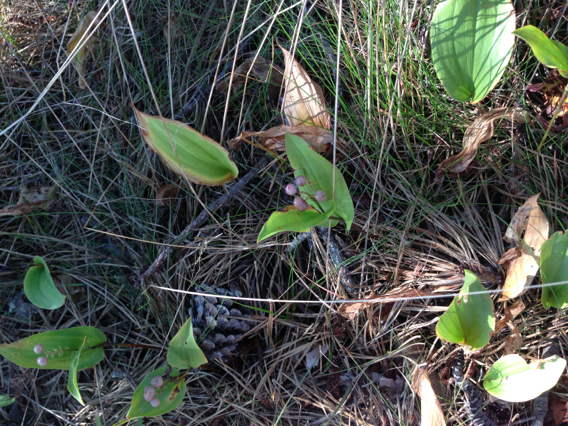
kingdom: Plantae
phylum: Tracheophyta
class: Liliopsida
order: Asparagales
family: Asparagaceae
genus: Maianthemum
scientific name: Maianthemum canadense
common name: False lily-of-the-valley
